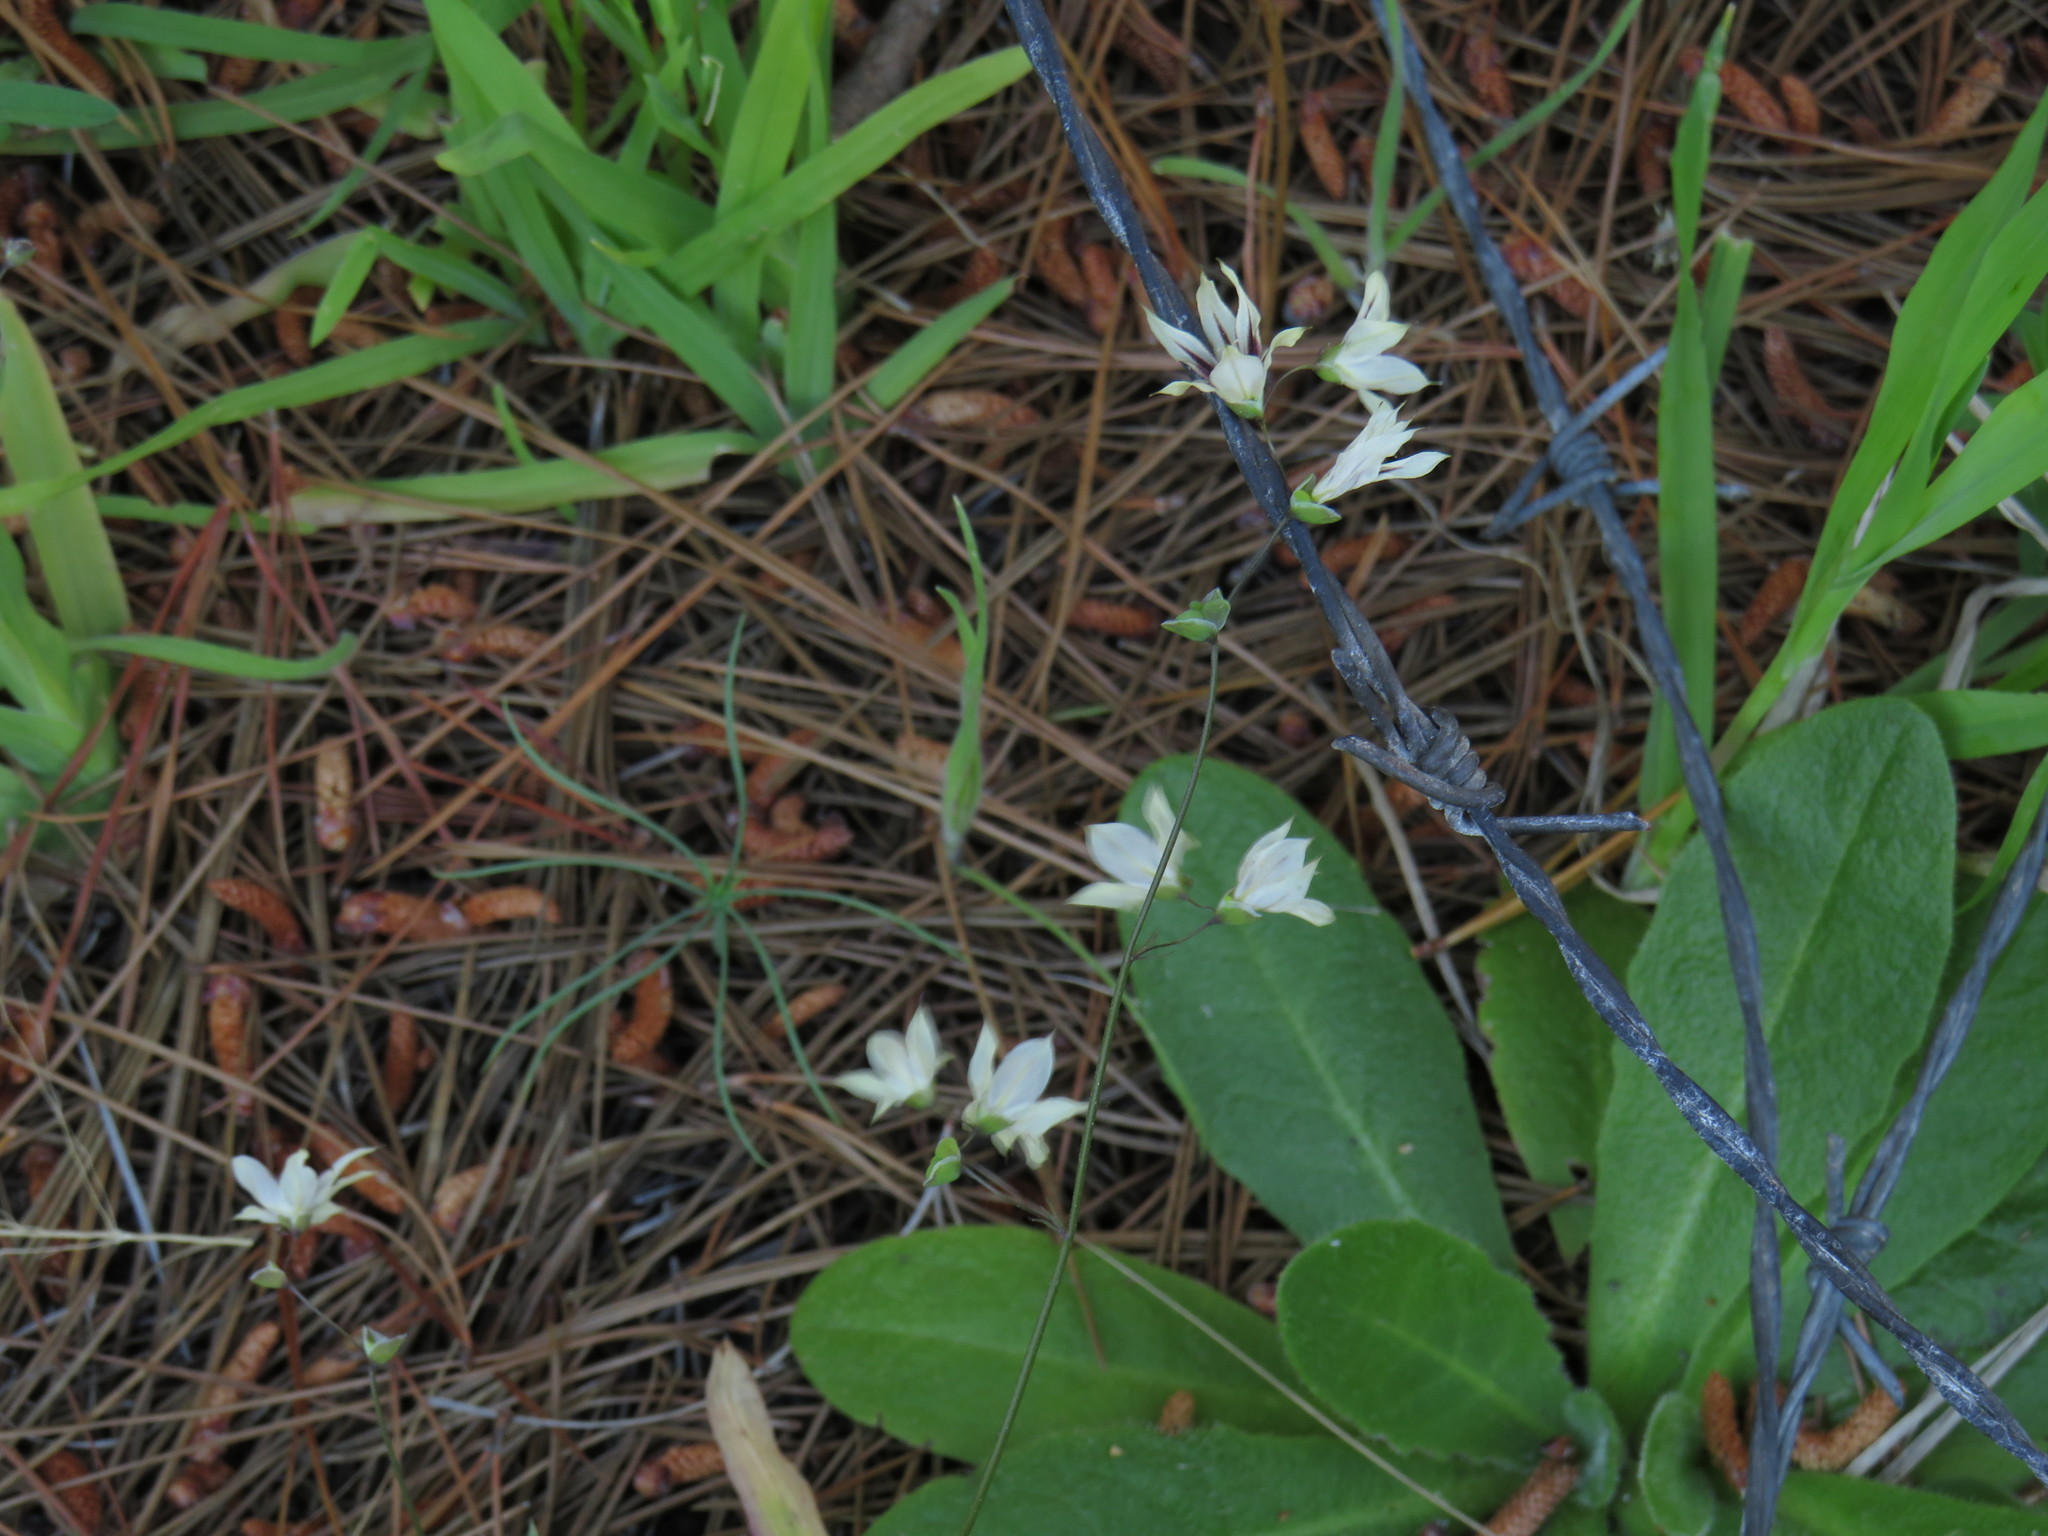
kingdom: Plantae
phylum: Tracheophyta
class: Liliopsida
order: Asparagales
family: Iridaceae
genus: Melasphaerula
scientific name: Melasphaerula graminea
